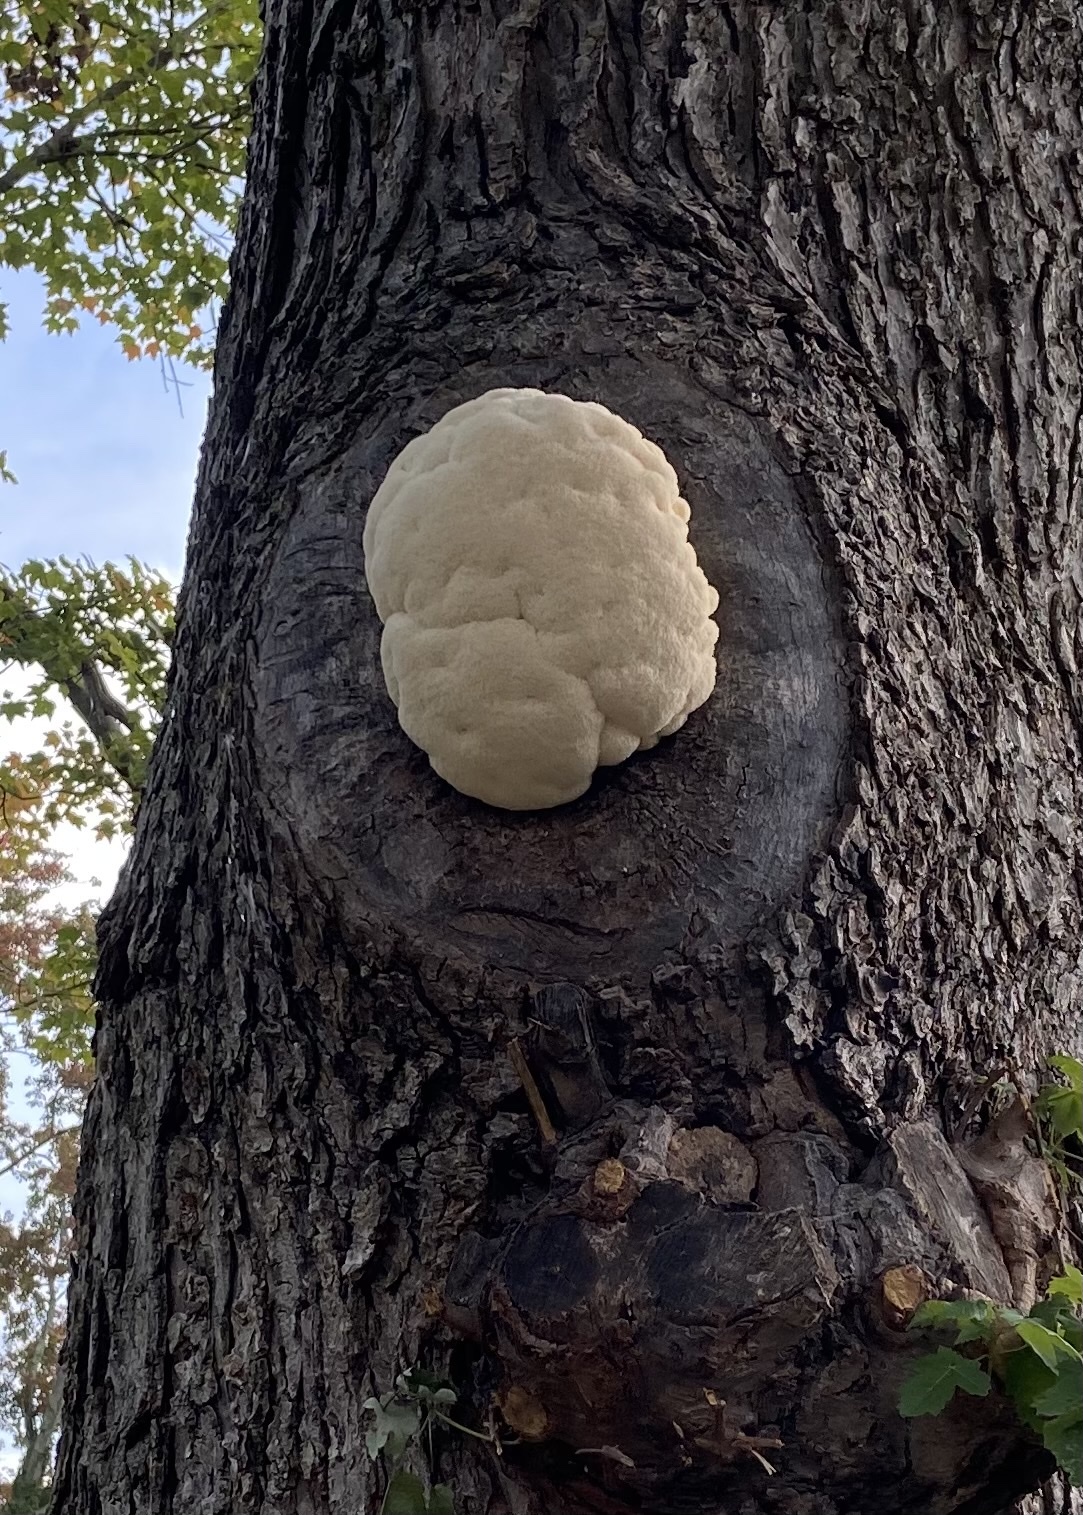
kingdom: Fungi
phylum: Basidiomycota
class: Agaricomycetes
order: Russulales
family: Hericiaceae
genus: Hericium
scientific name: Hericium erinaceus
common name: Bearded tooth
